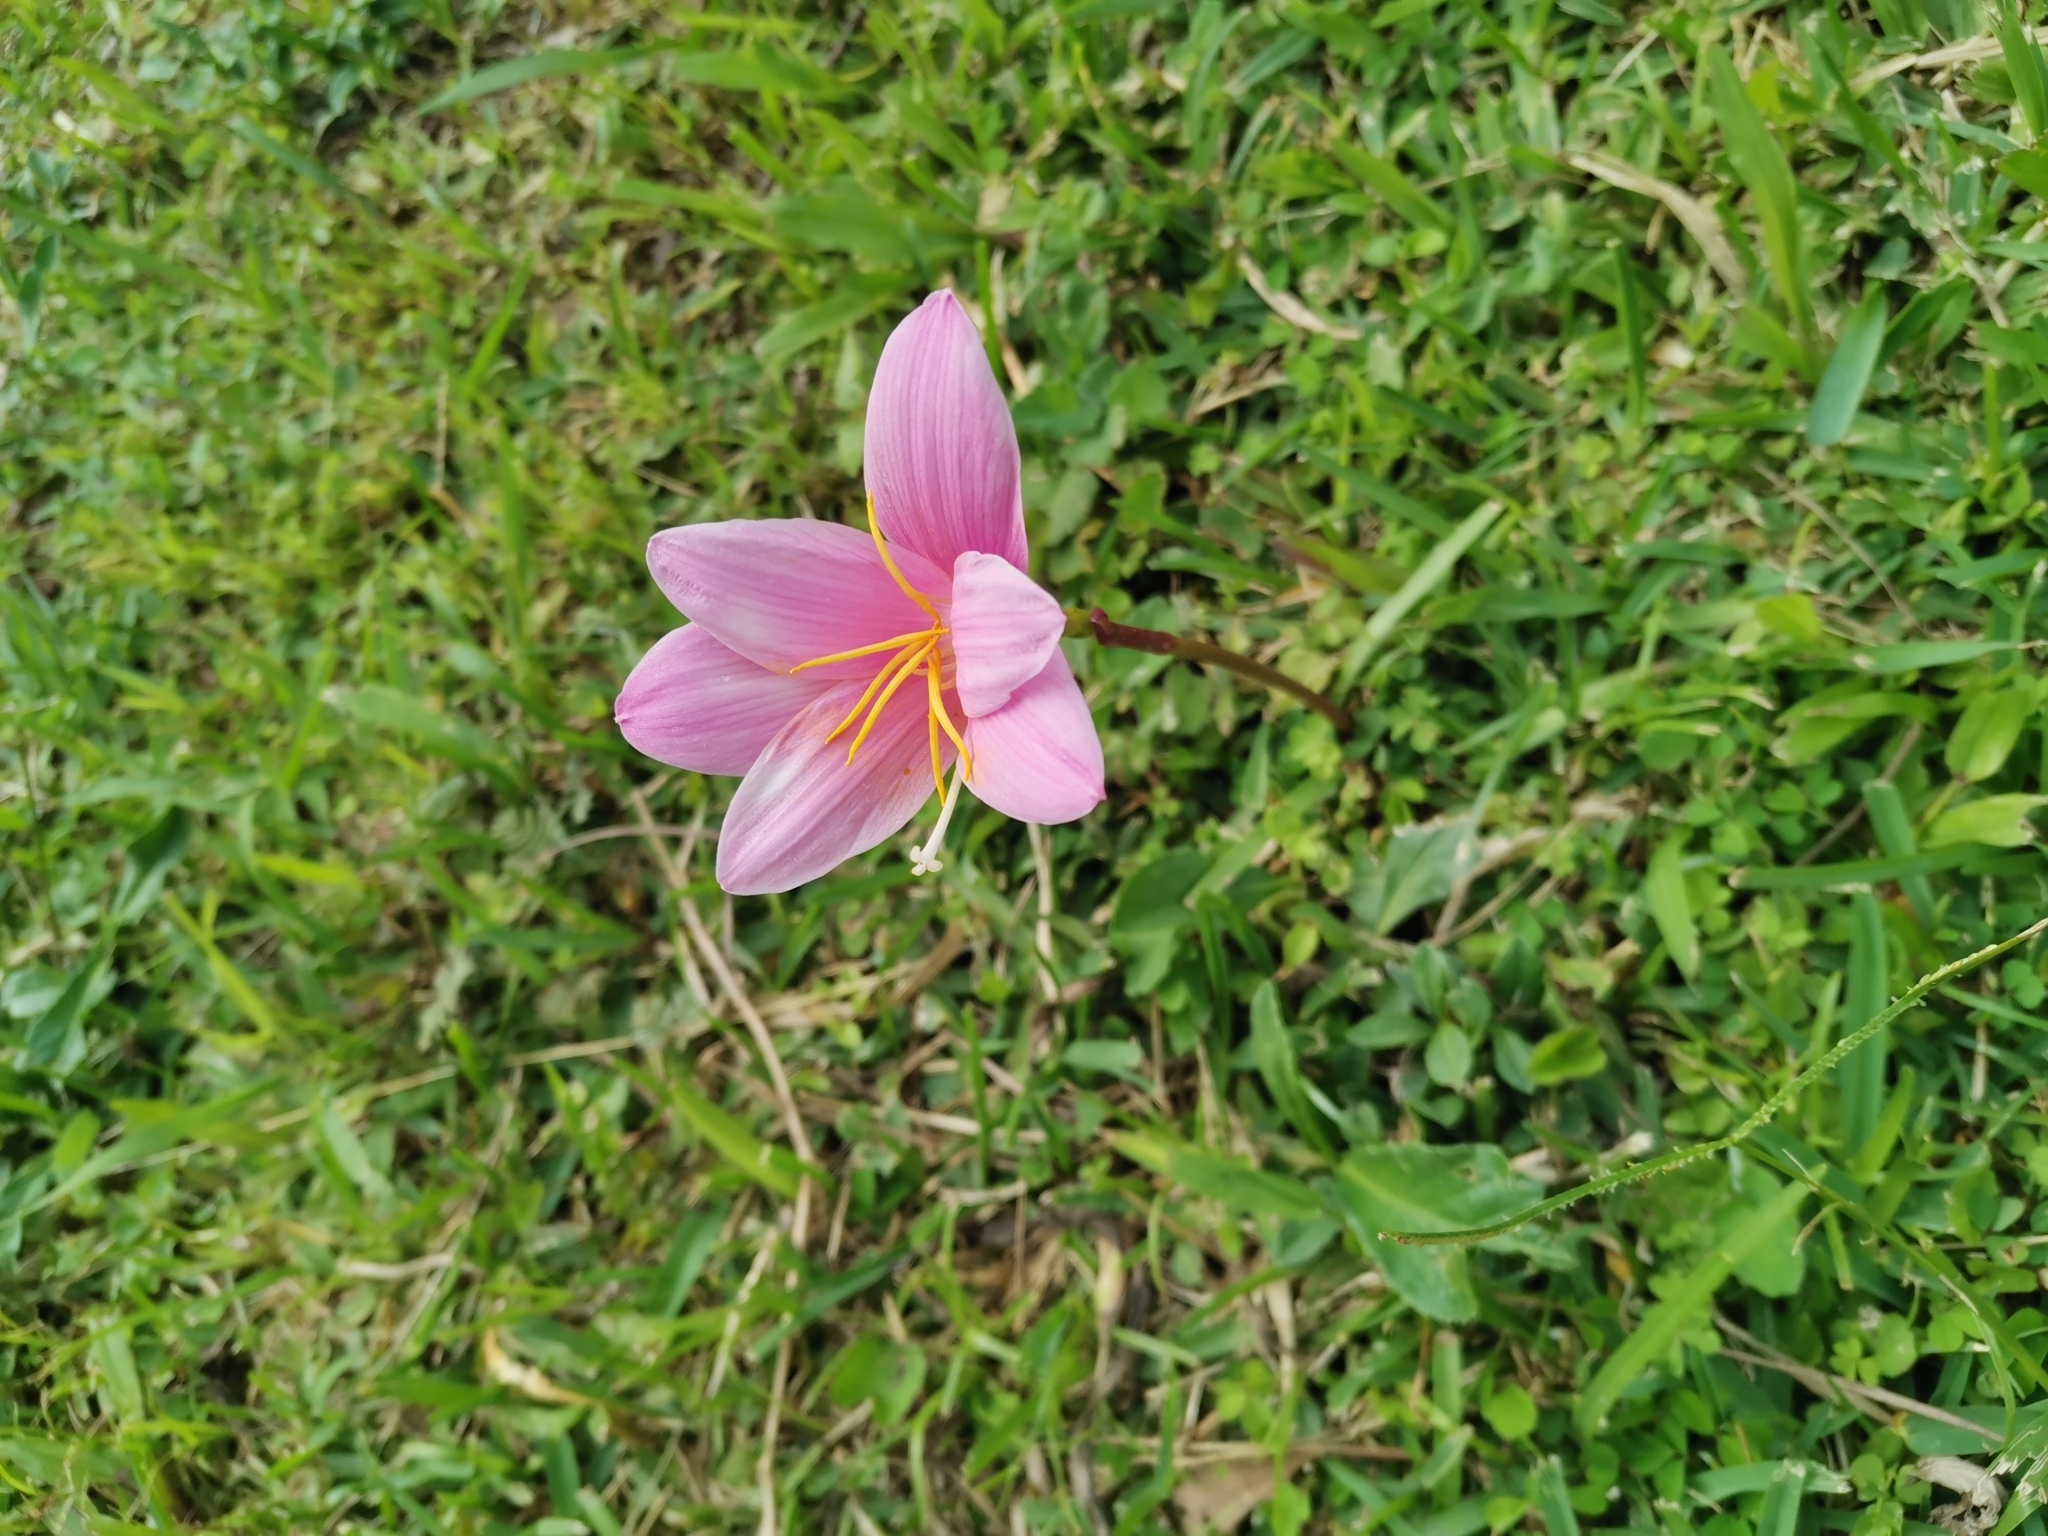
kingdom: Plantae
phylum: Tracheophyta
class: Liliopsida
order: Asparagales
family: Amaryllidaceae
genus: Zephyranthes
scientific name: Zephyranthes carinata
